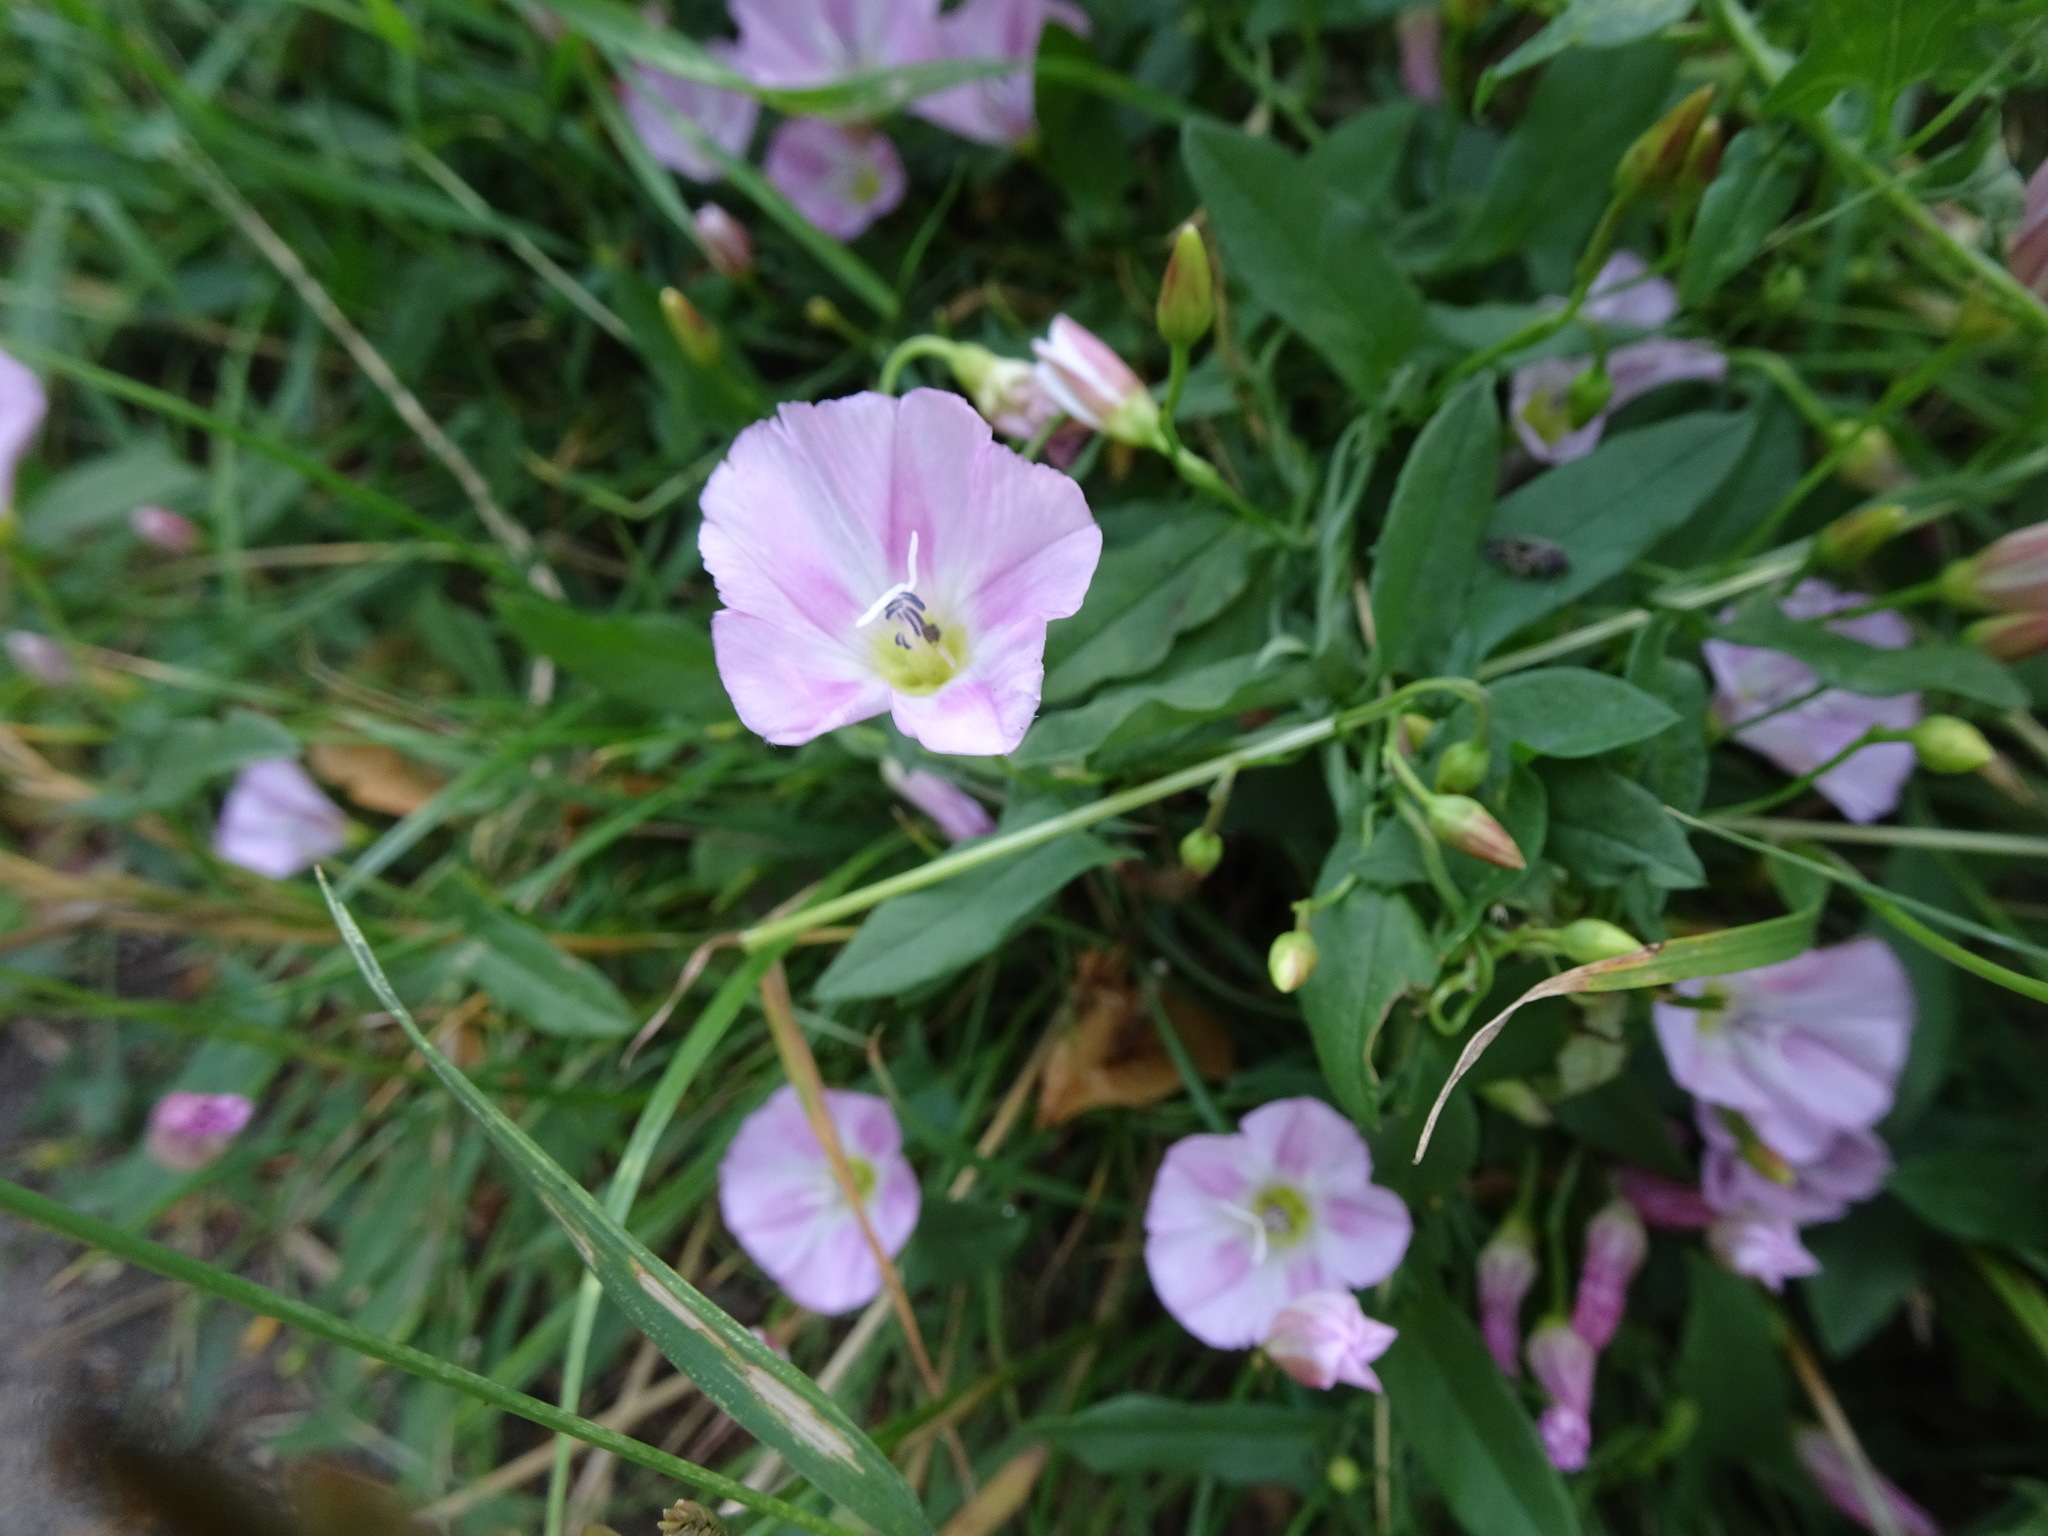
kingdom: Plantae
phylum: Tracheophyta
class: Magnoliopsida
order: Solanales
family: Convolvulaceae
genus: Convolvulus
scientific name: Convolvulus arvensis
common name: Field bindweed
